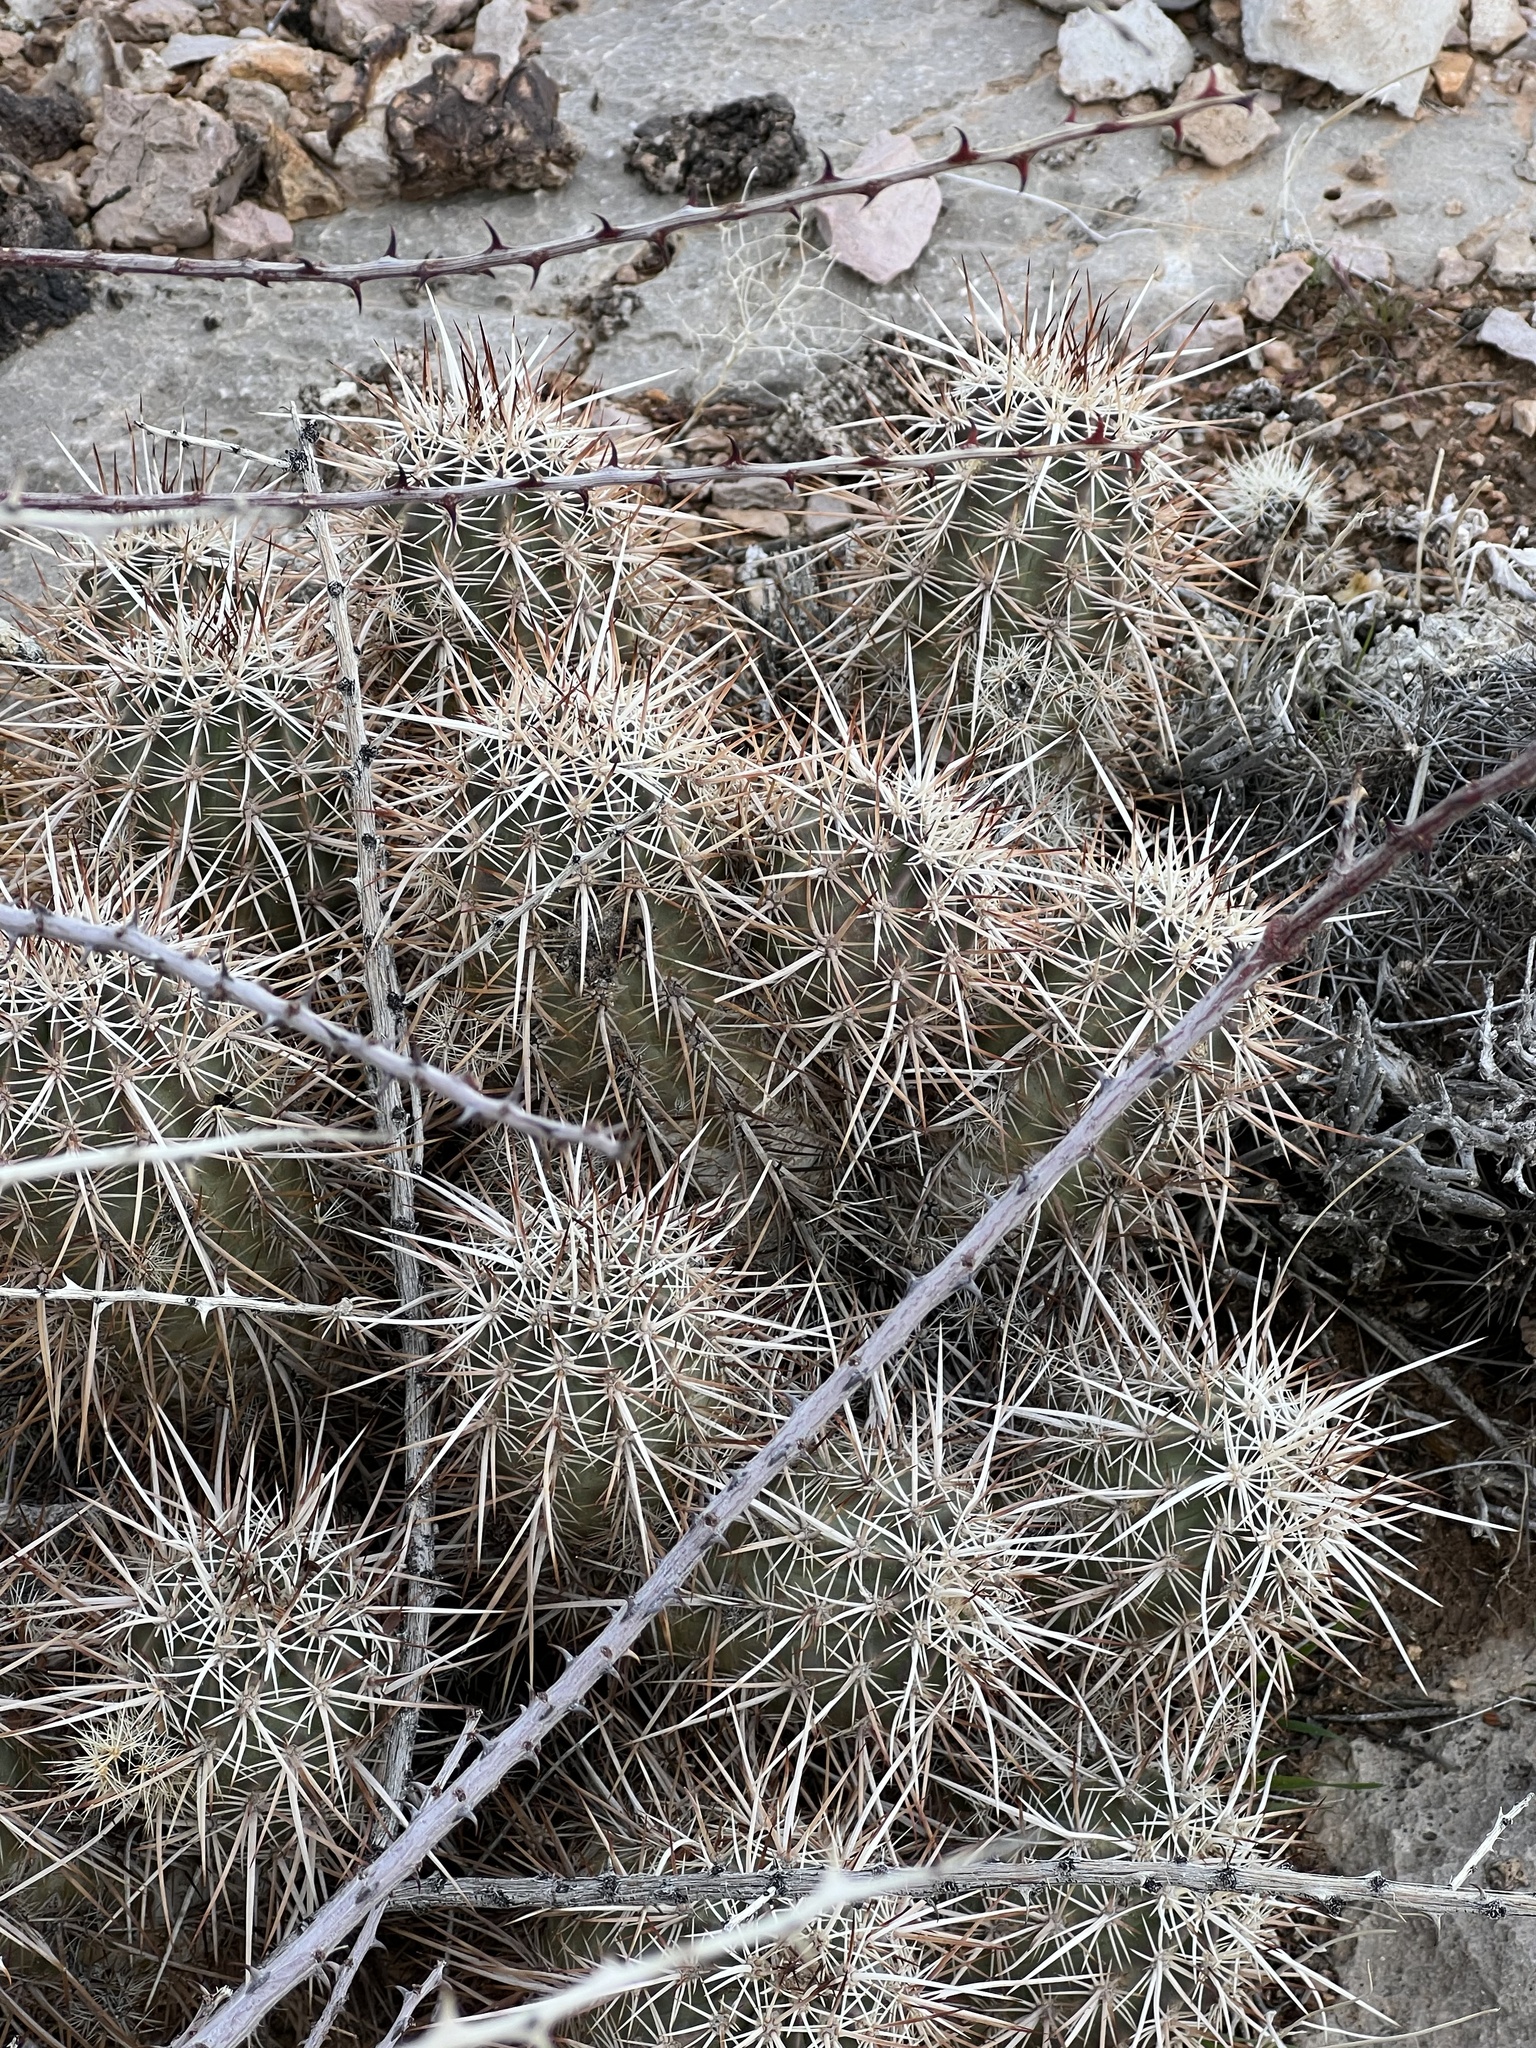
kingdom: Plantae
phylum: Tracheophyta
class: Magnoliopsida
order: Caryophyllales
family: Cactaceae
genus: Echinocereus
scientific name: Echinocereus engelmannii
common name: Engelmann's hedgehog cactus
